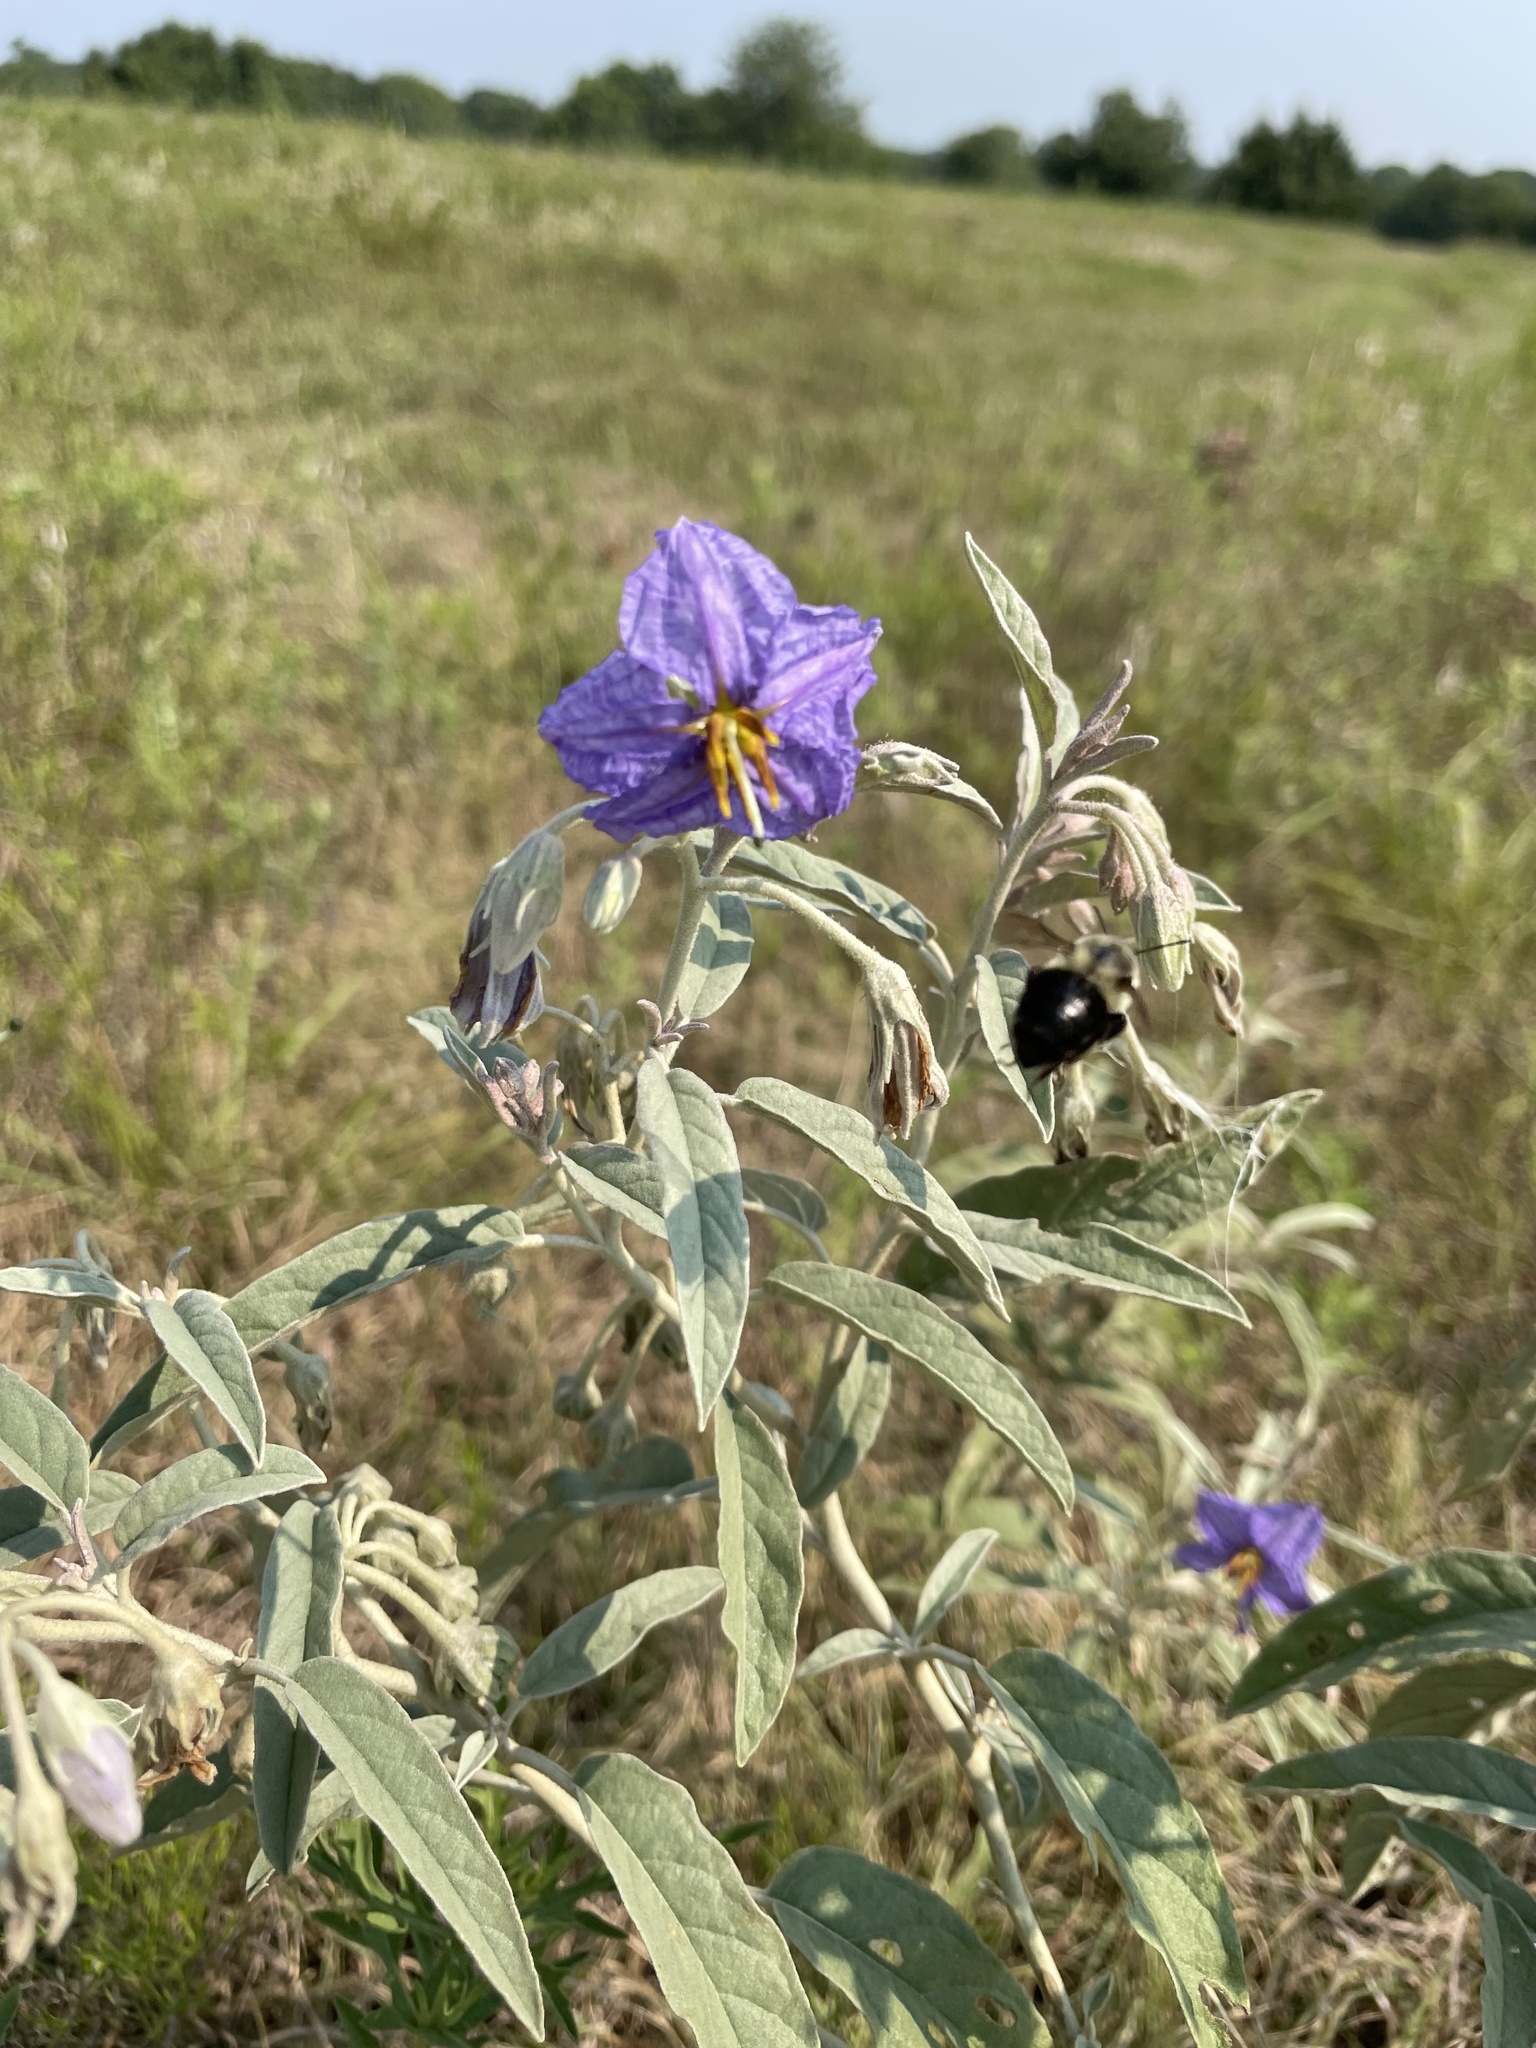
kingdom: Animalia
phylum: Arthropoda
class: Insecta
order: Hymenoptera
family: Apidae
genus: Bombus
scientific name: Bombus impatiens
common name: Common eastern bumble bee
